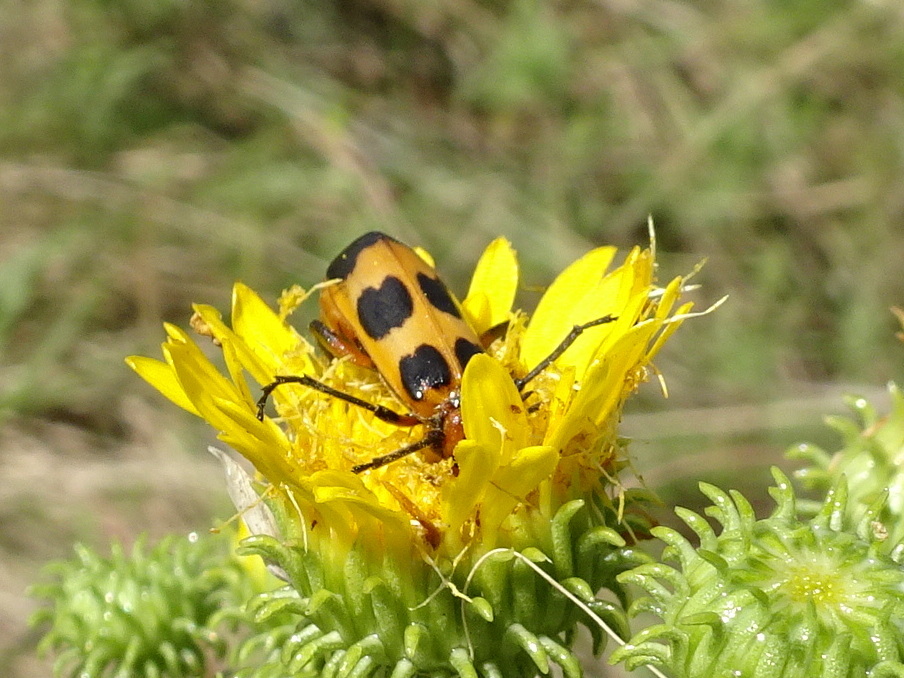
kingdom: Animalia
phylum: Arthropoda
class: Insecta
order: Coleoptera
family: Meloidae
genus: Pyrota
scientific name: Pyrota palpalis
